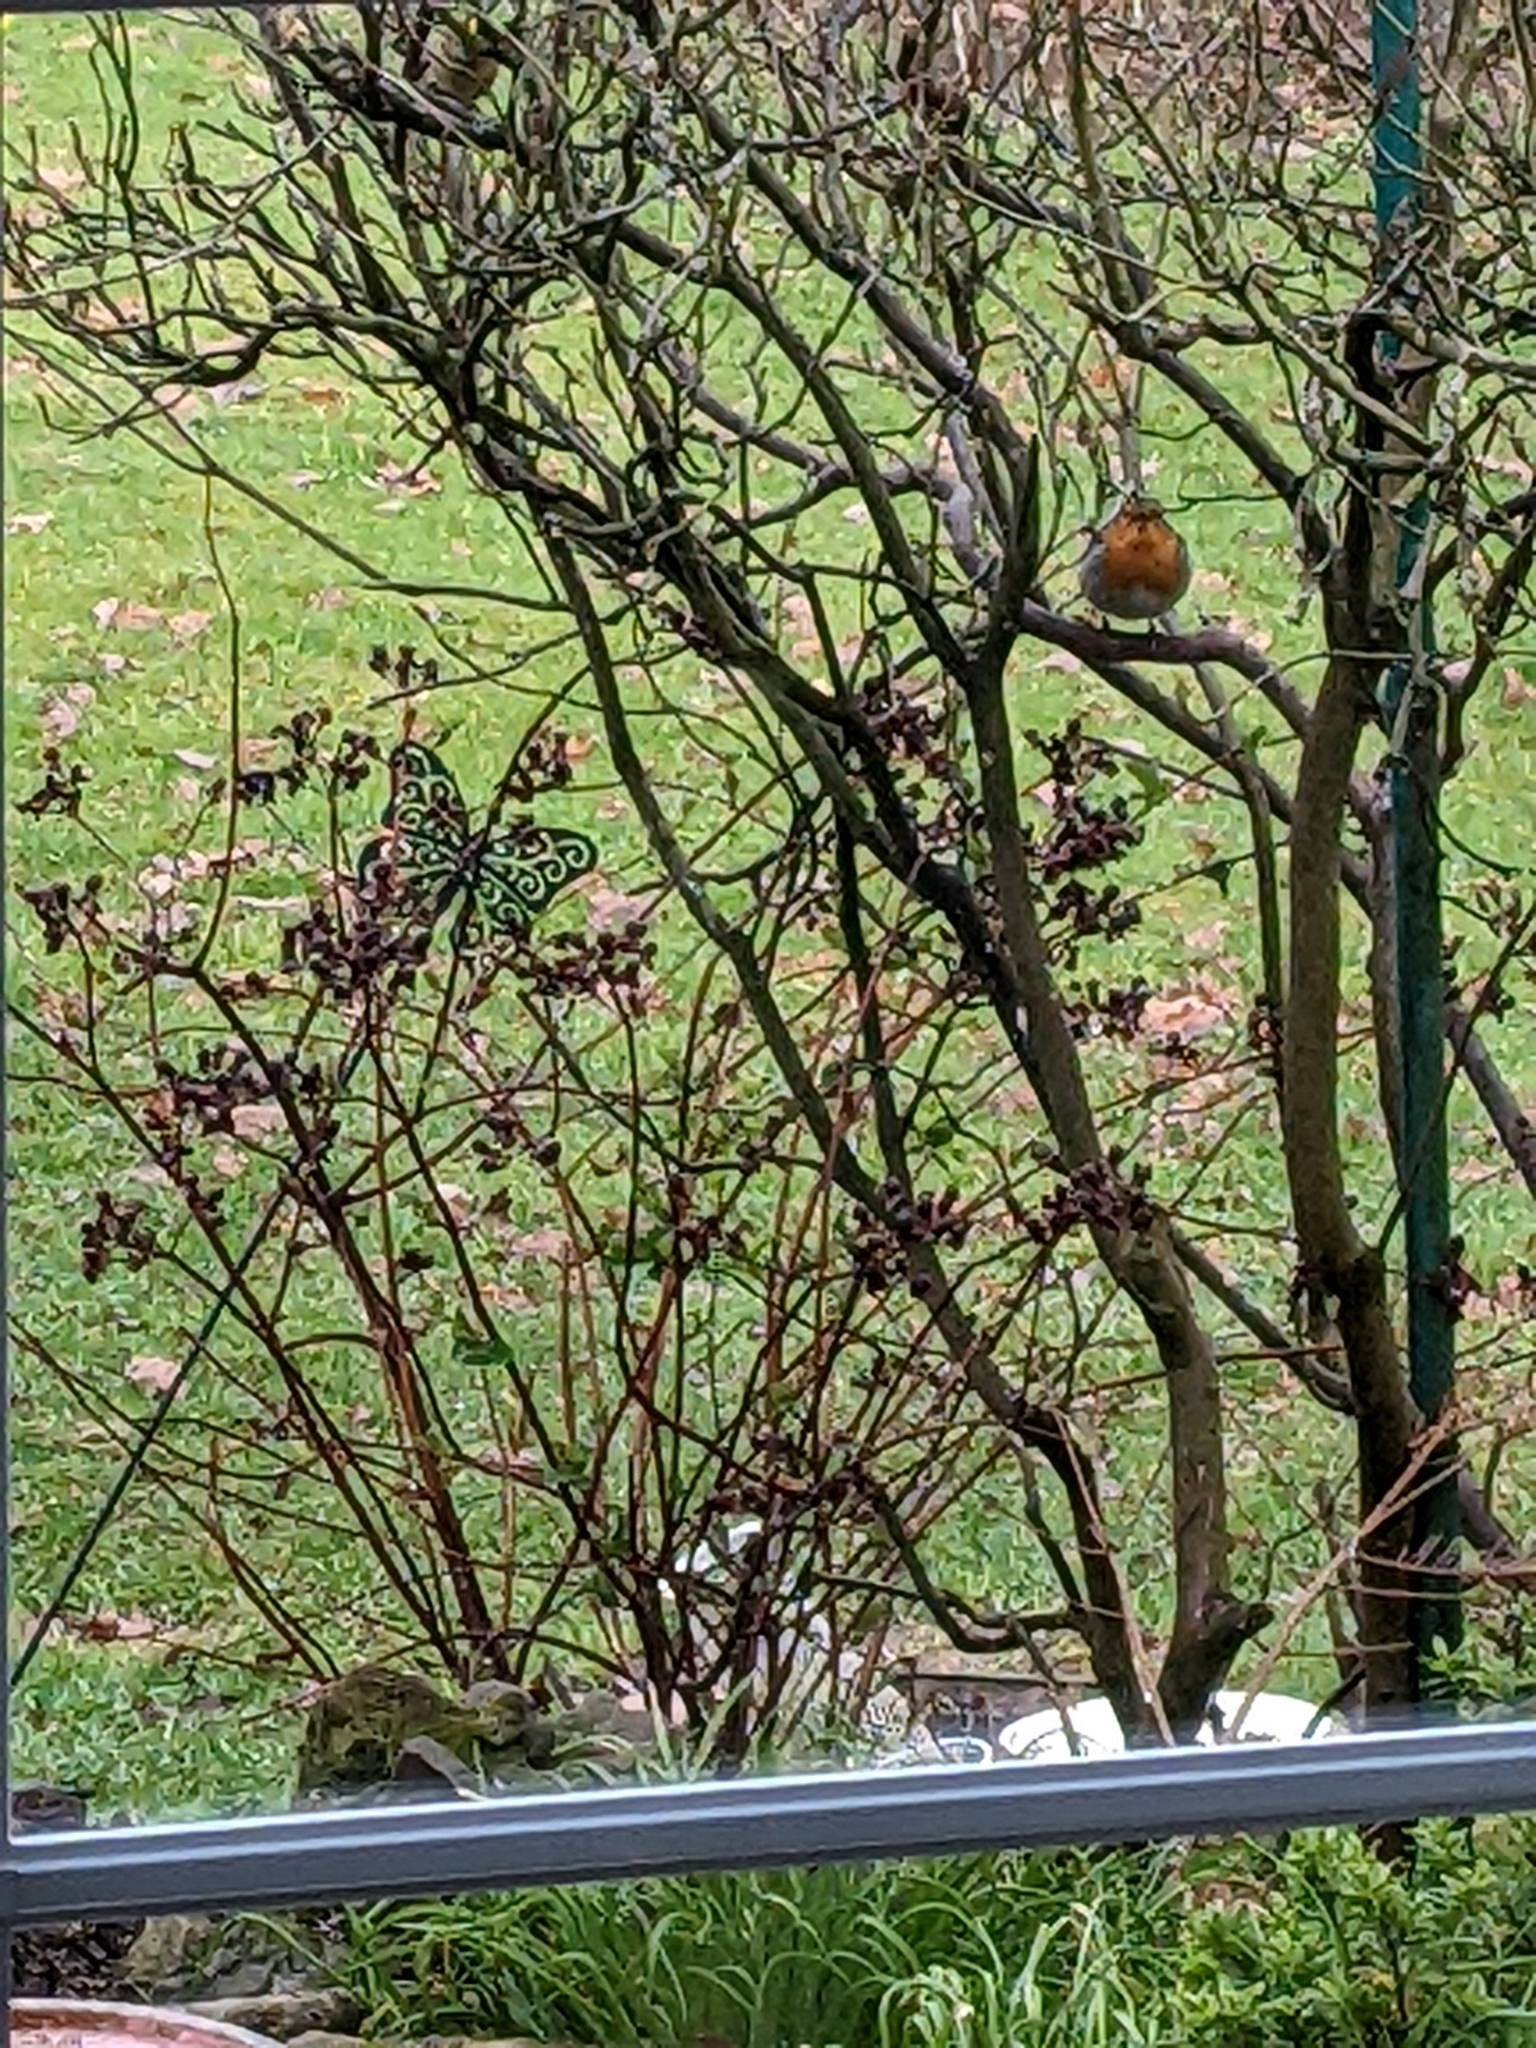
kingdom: Animalia
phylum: Chordata
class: Aves
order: Passeriformes
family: Regulidae
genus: Regulus
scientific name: Regulus regulus
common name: Goldcrest
